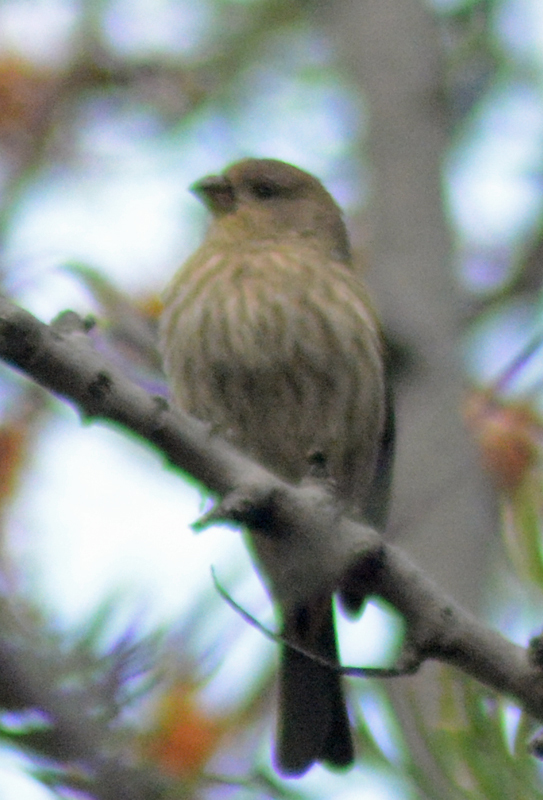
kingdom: Animalia
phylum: Chordata
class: Aves
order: Passeriformes
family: Fringillidae
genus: Haemorhous
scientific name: Haemorhous mexicanus
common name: House finch
